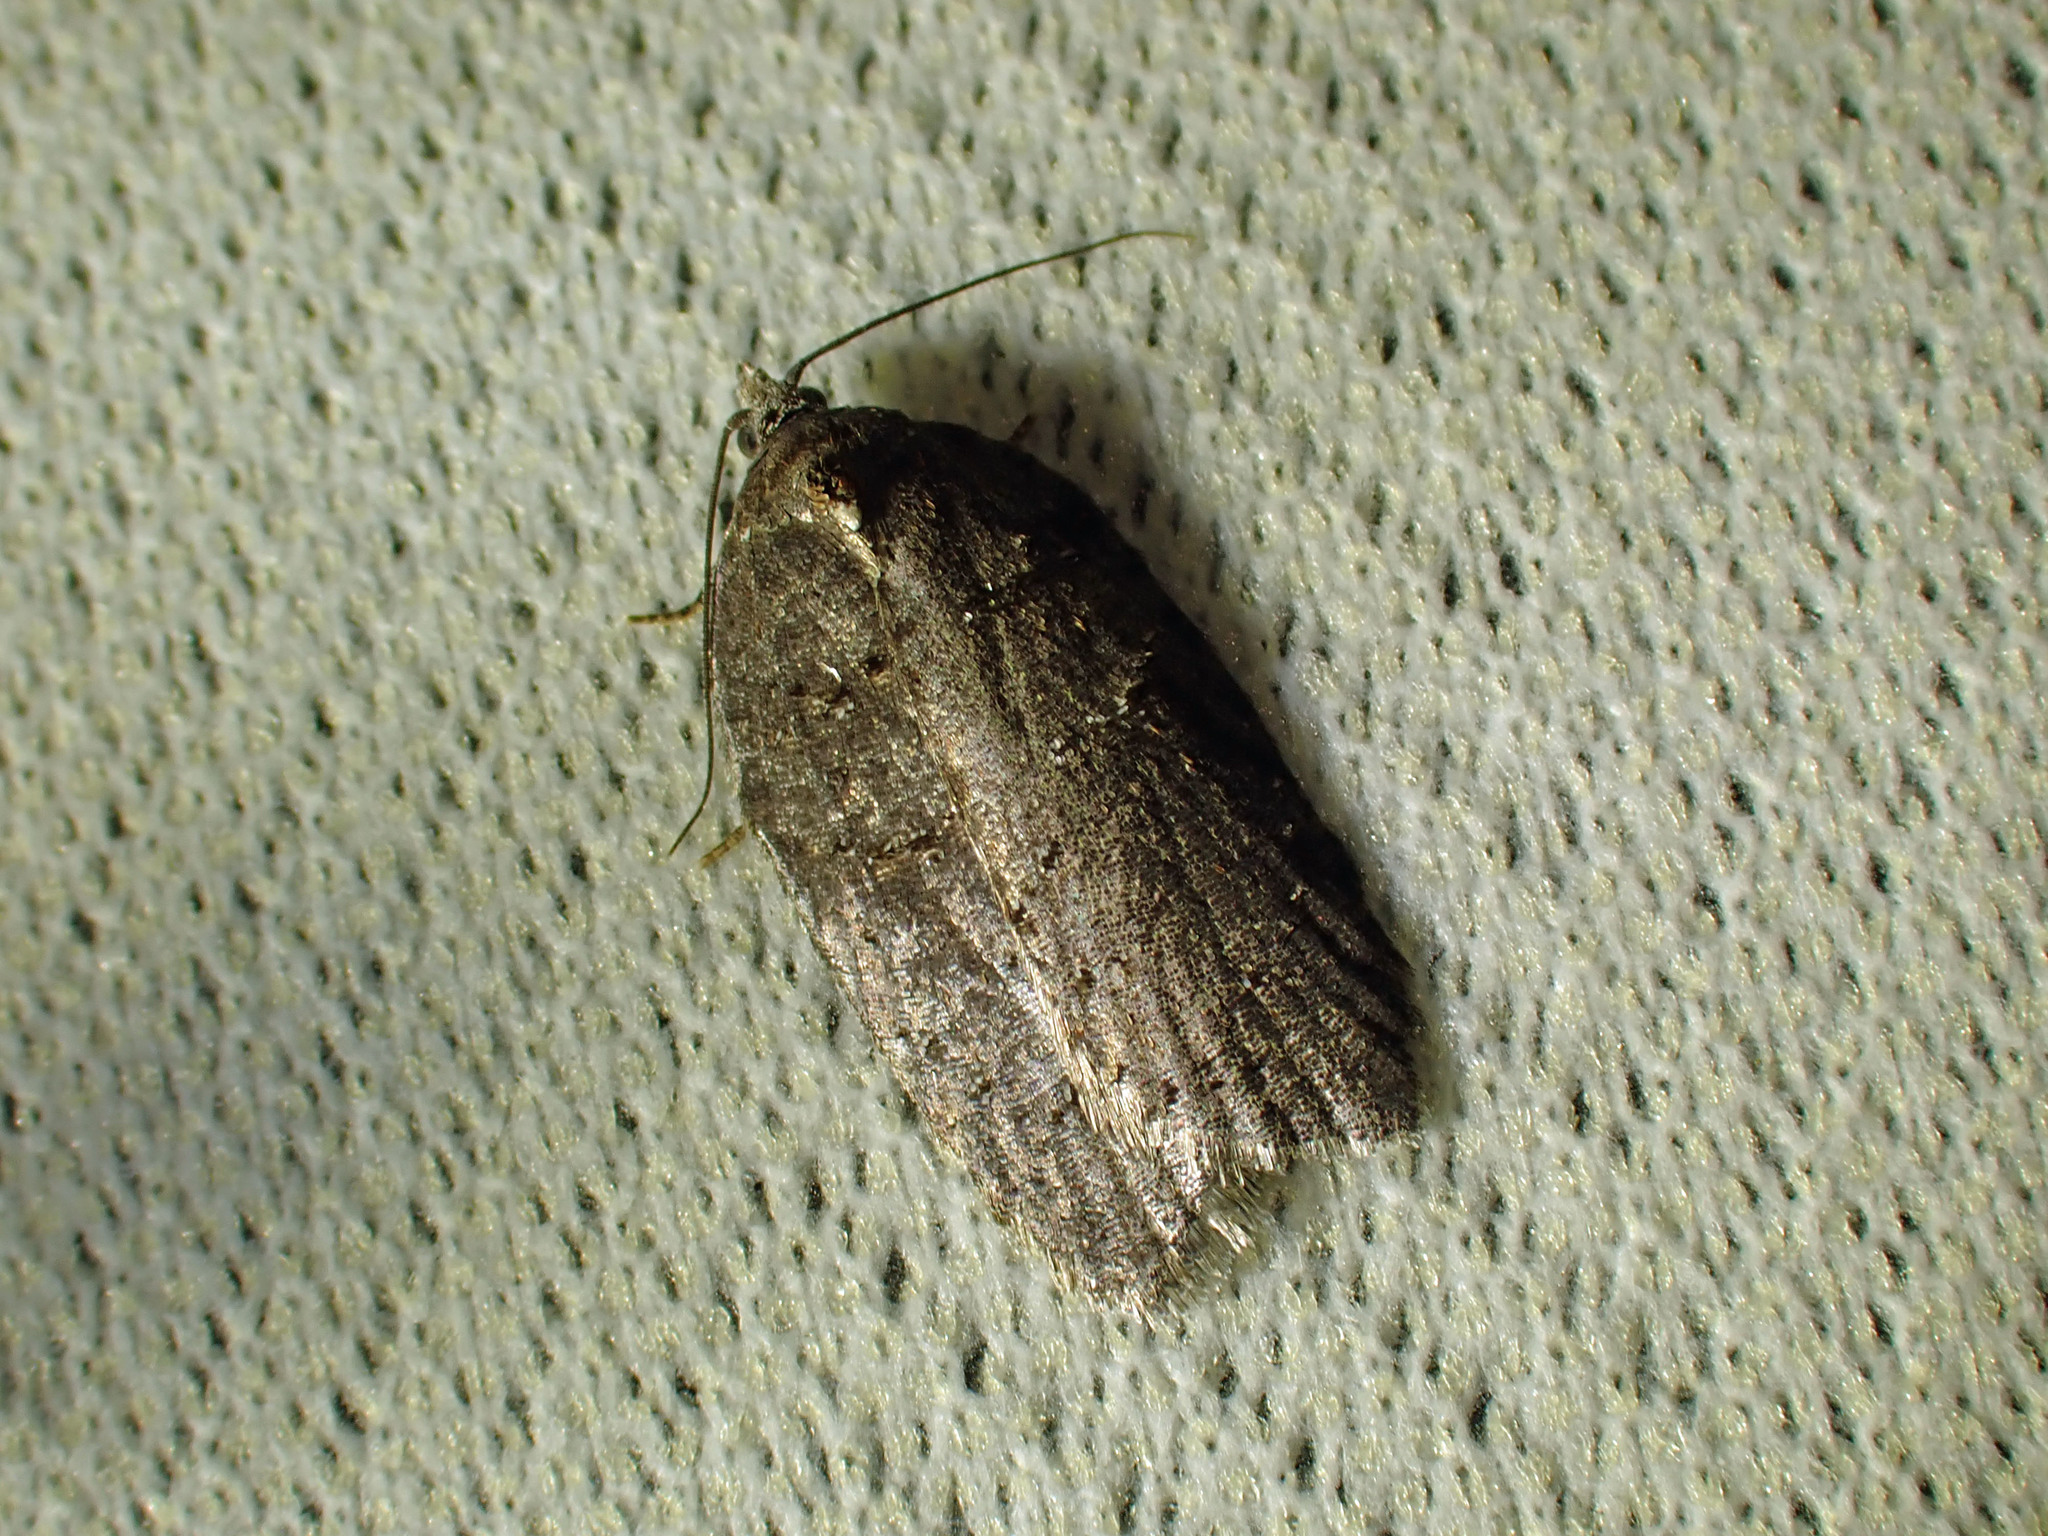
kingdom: Animalia
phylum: Arthropoda
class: Insecta
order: Lepidoptera
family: Tortricidae
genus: Acleris
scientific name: Acleris caliginosana
